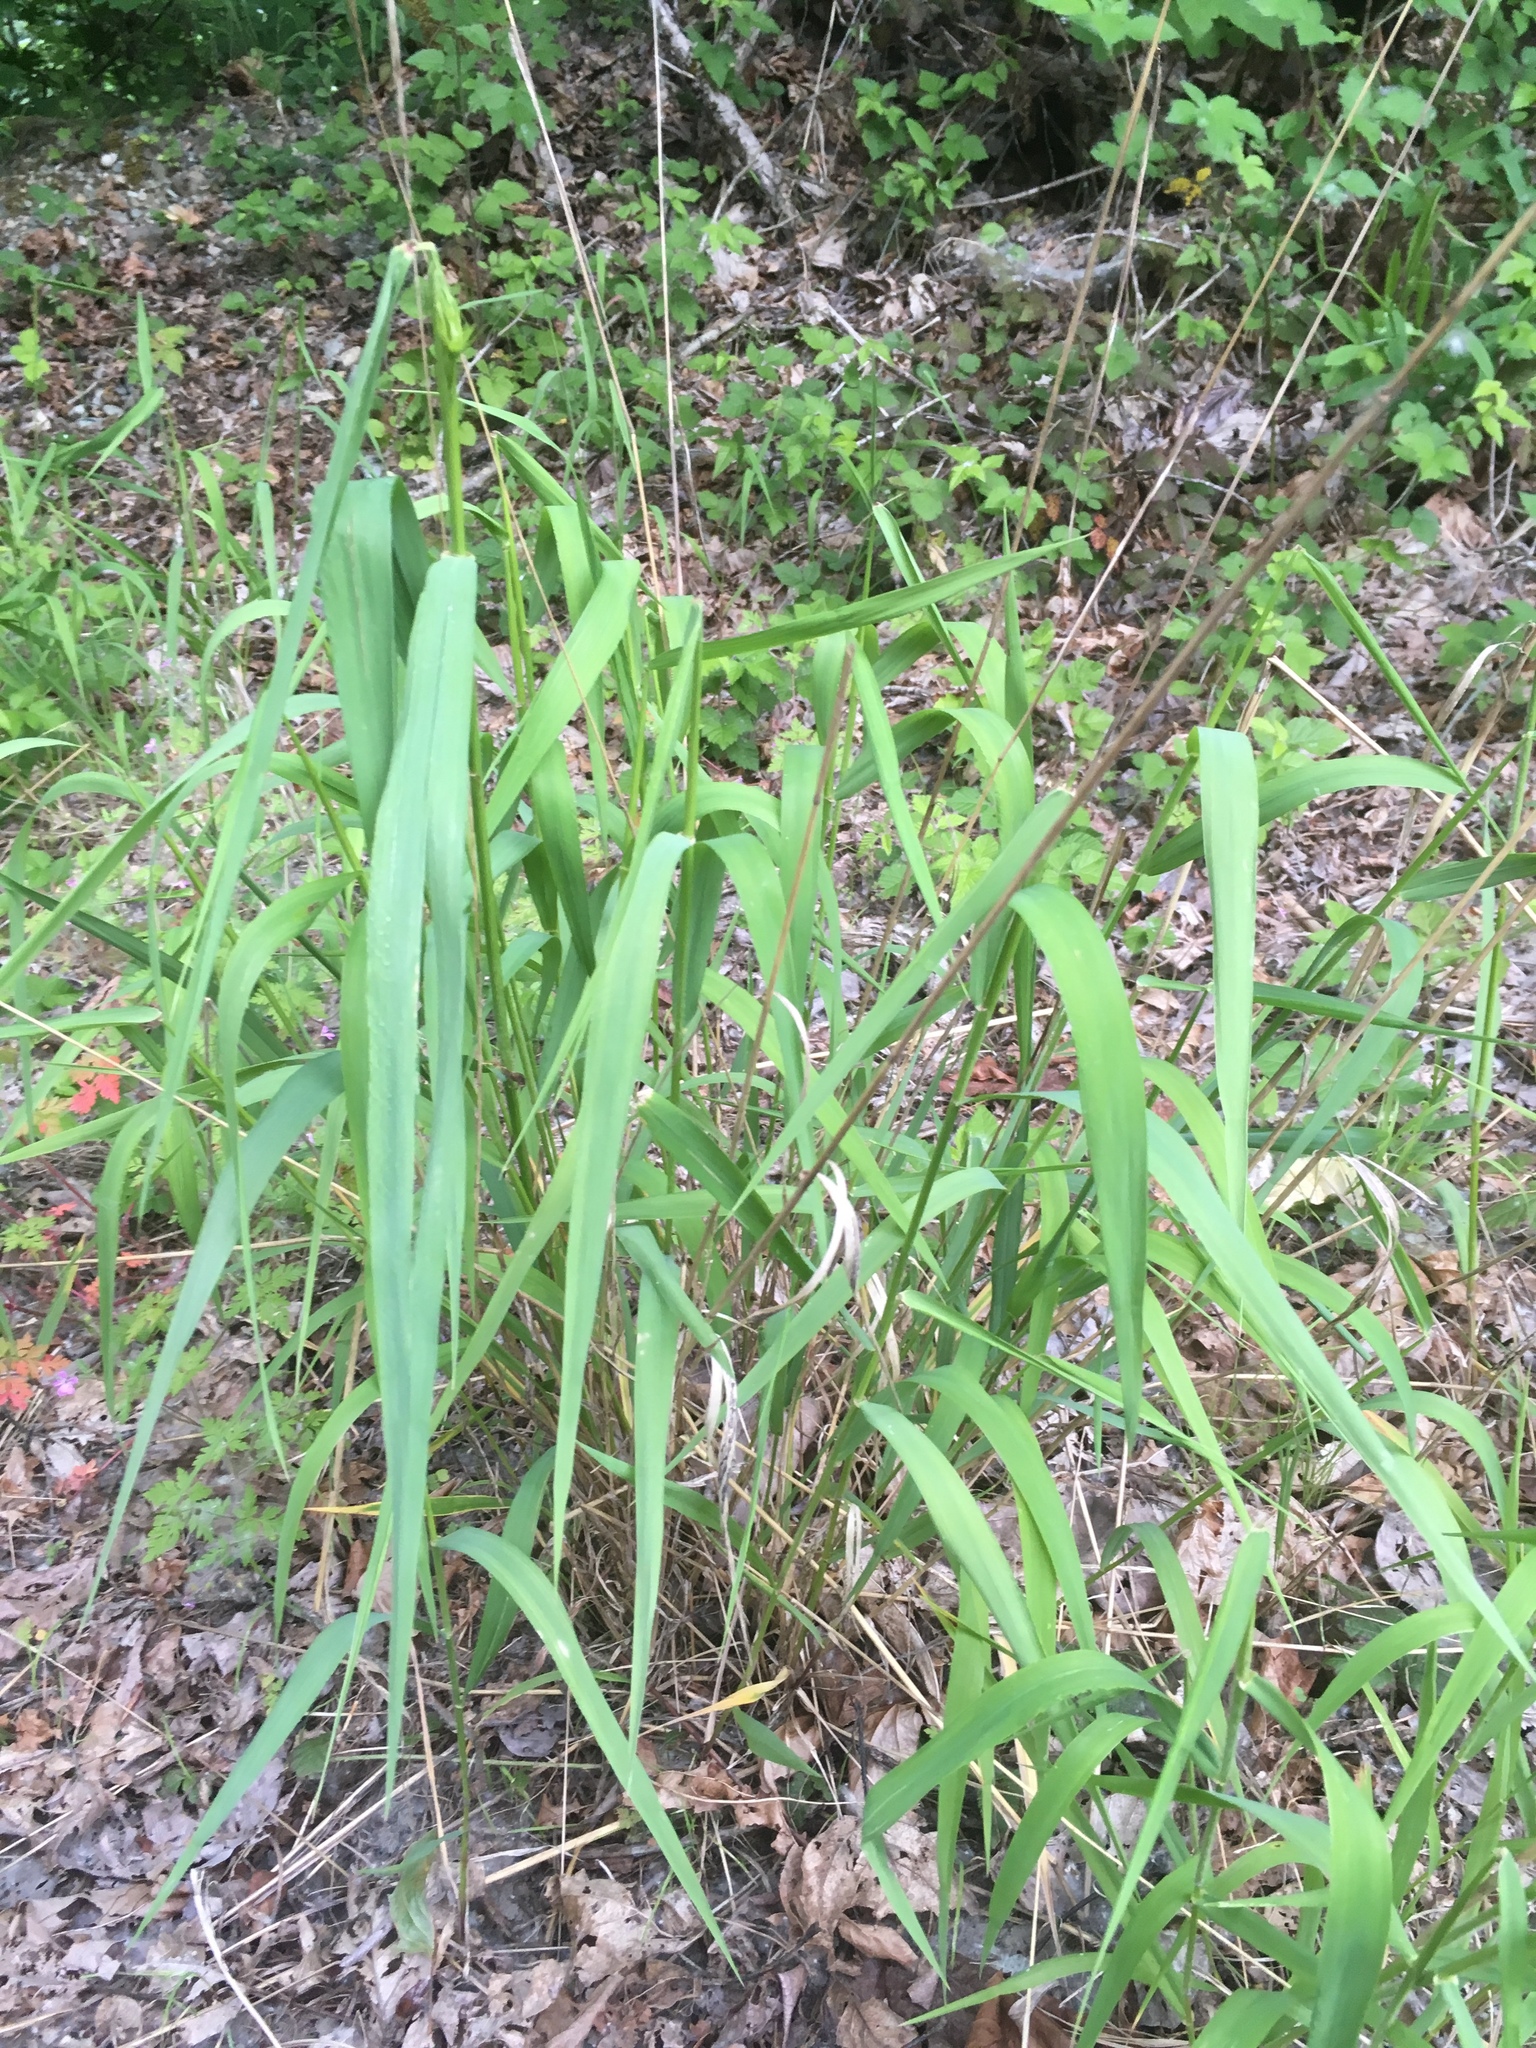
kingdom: Plantae
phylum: Tracheophyta
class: Liliopsida
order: Poales
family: Poaceae
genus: Elymus
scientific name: Elymus glaucus
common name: Blue wild rye
